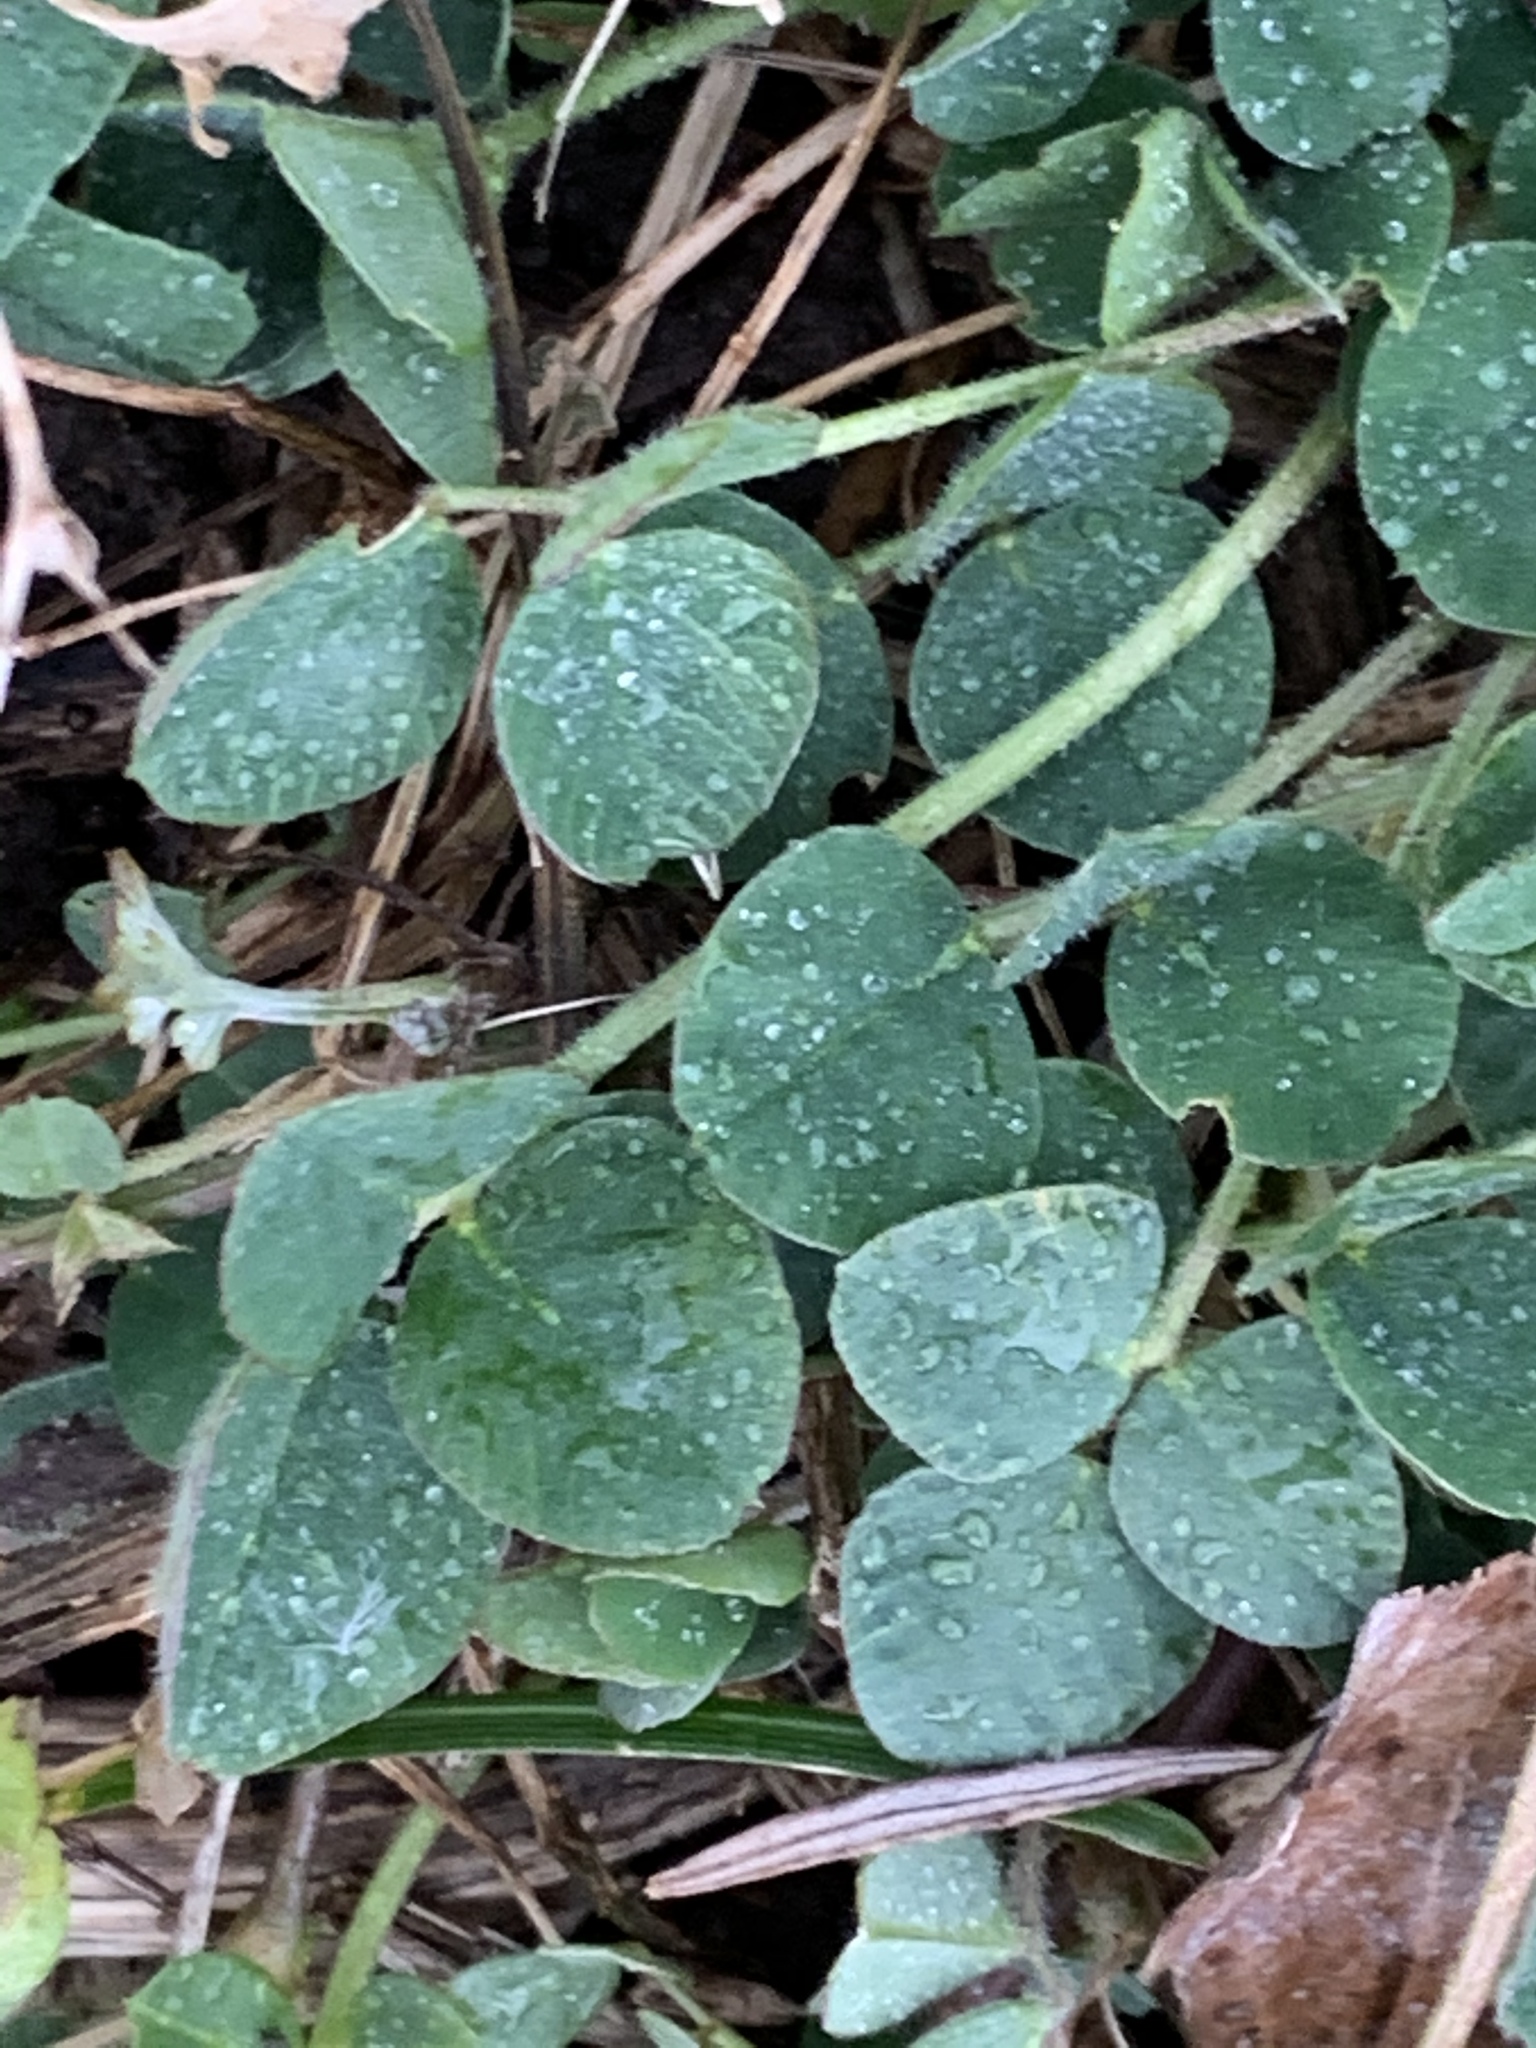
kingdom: Plantae
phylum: Tracheophyta
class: Magnoliopsida
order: Fabales
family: Fabaceae
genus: Medicago
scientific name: Medicago lupulina
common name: Black medick
